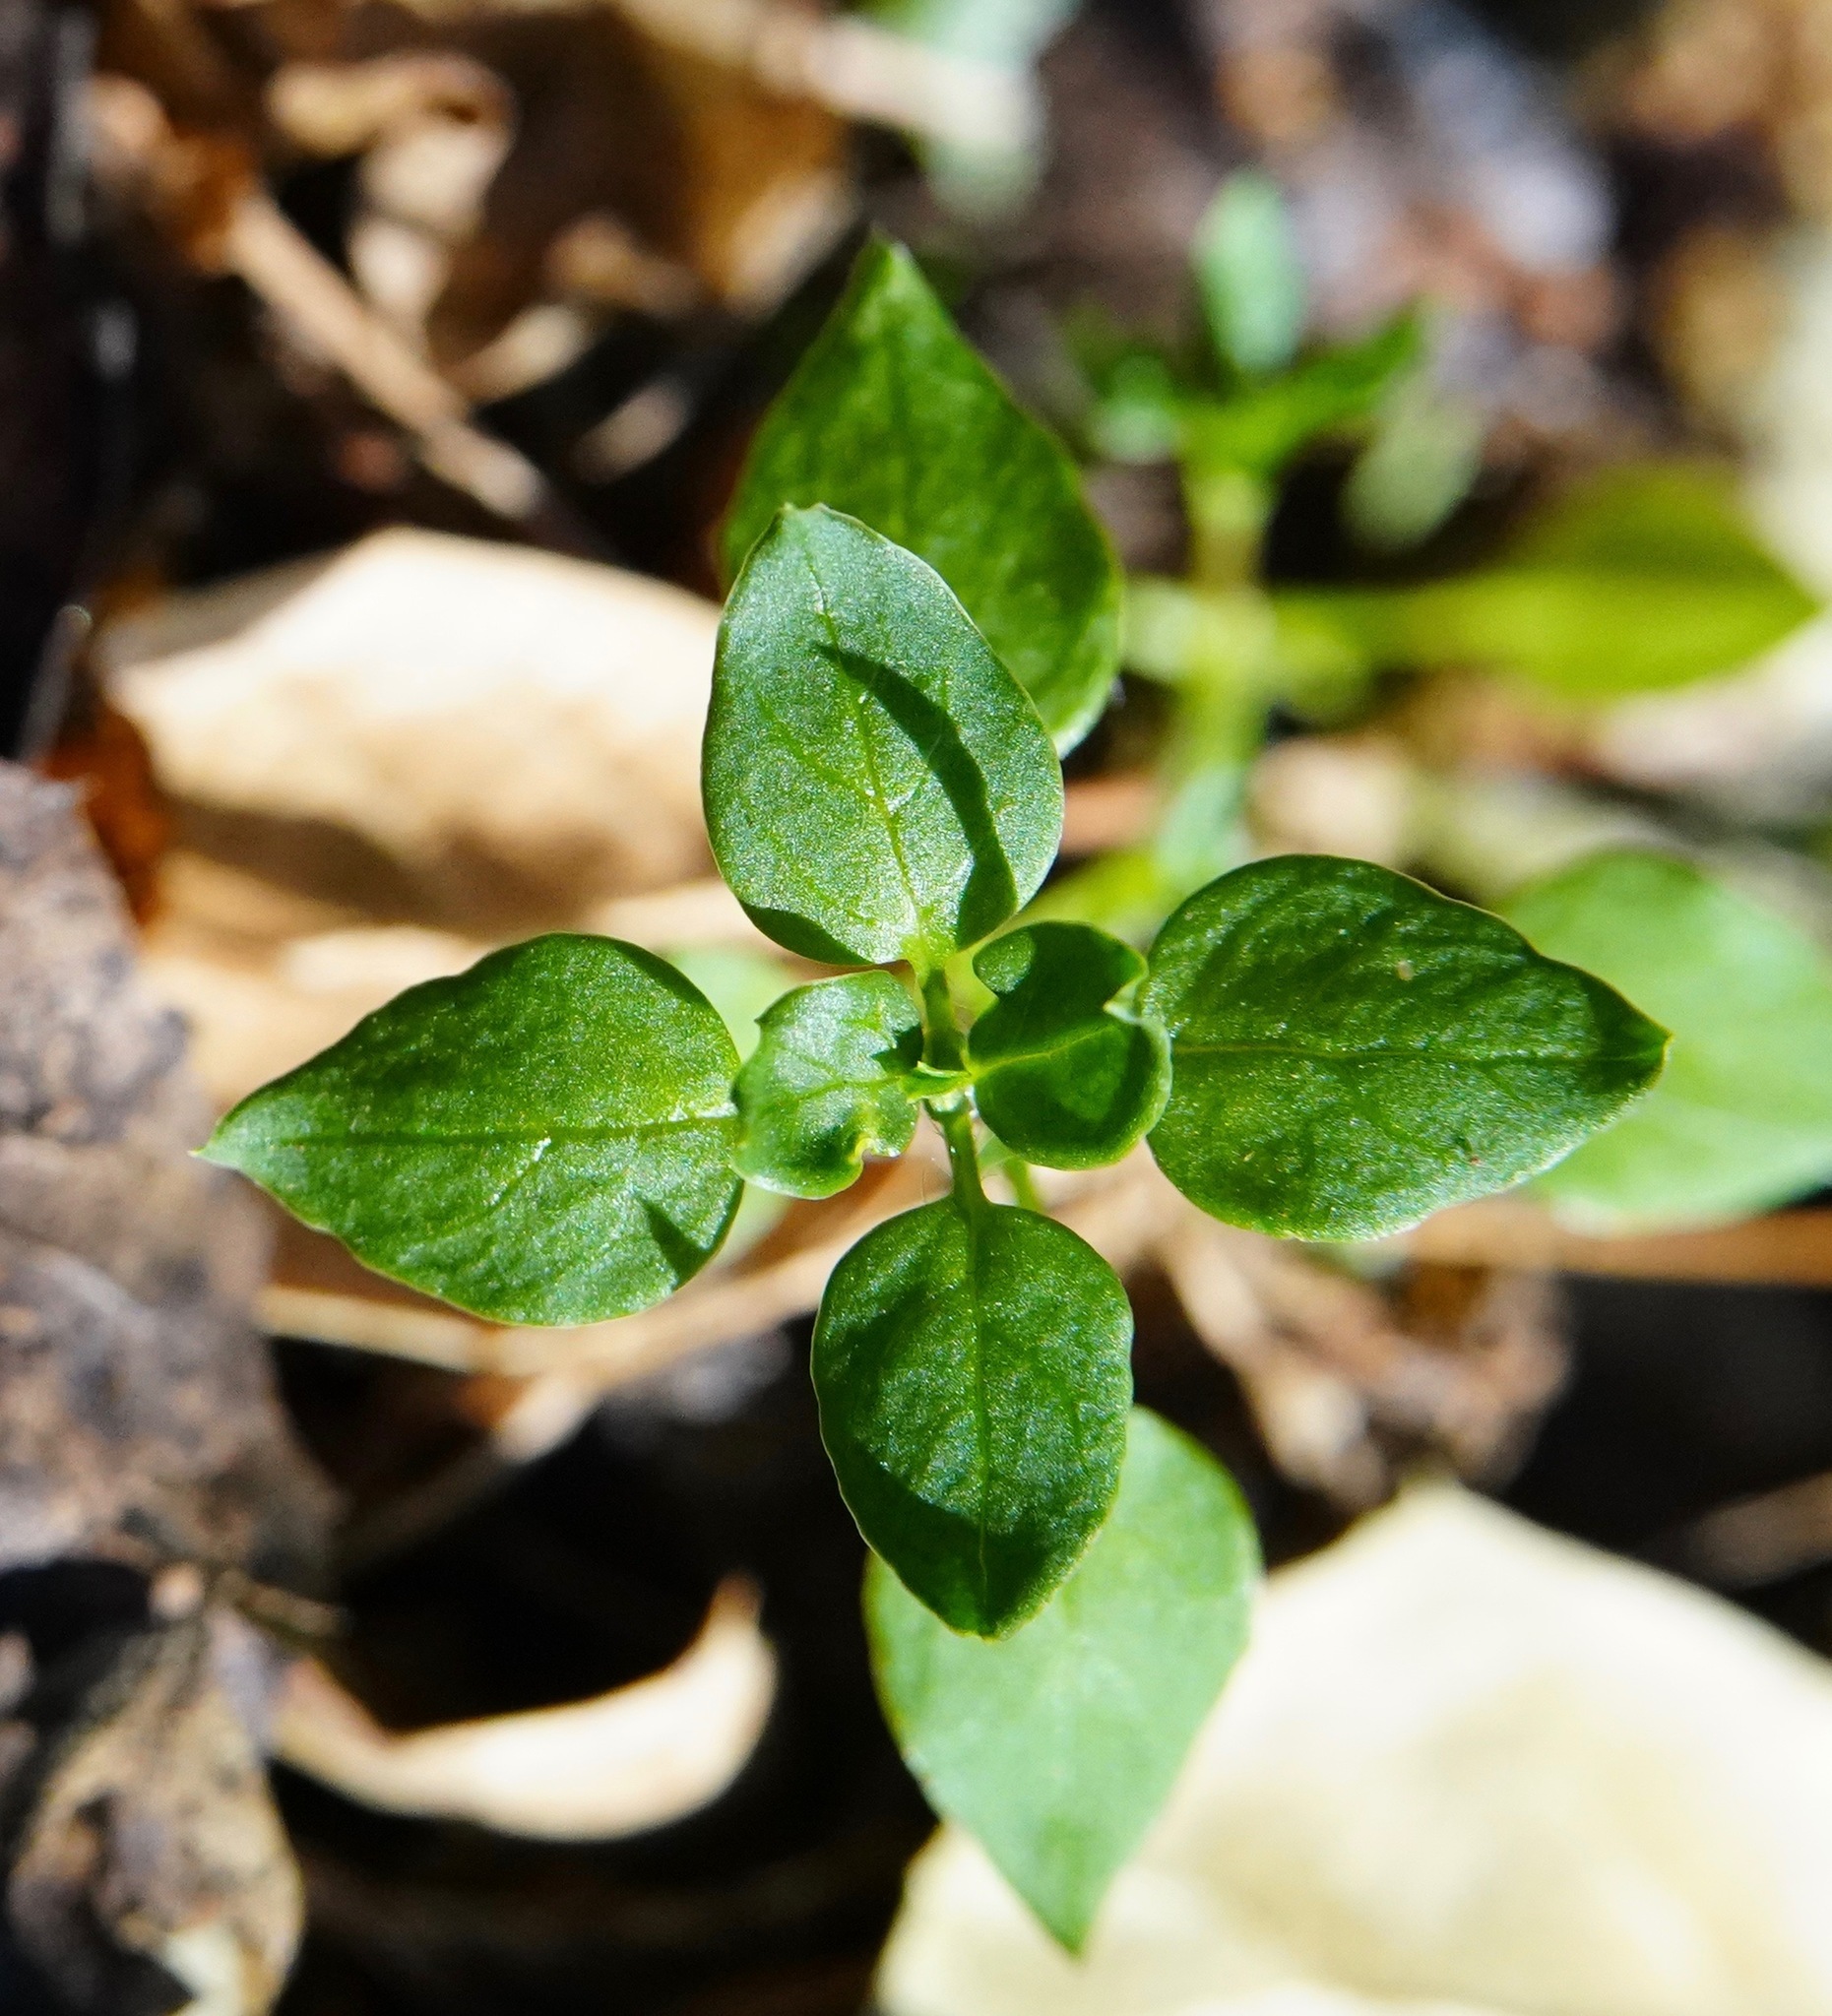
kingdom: Plantae
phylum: Tracheophyta
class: Magnoliopsida
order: Caryophyllales
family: Caryophyllaceae
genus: Stellaria
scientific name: Stellaria media
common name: Common chickweed
